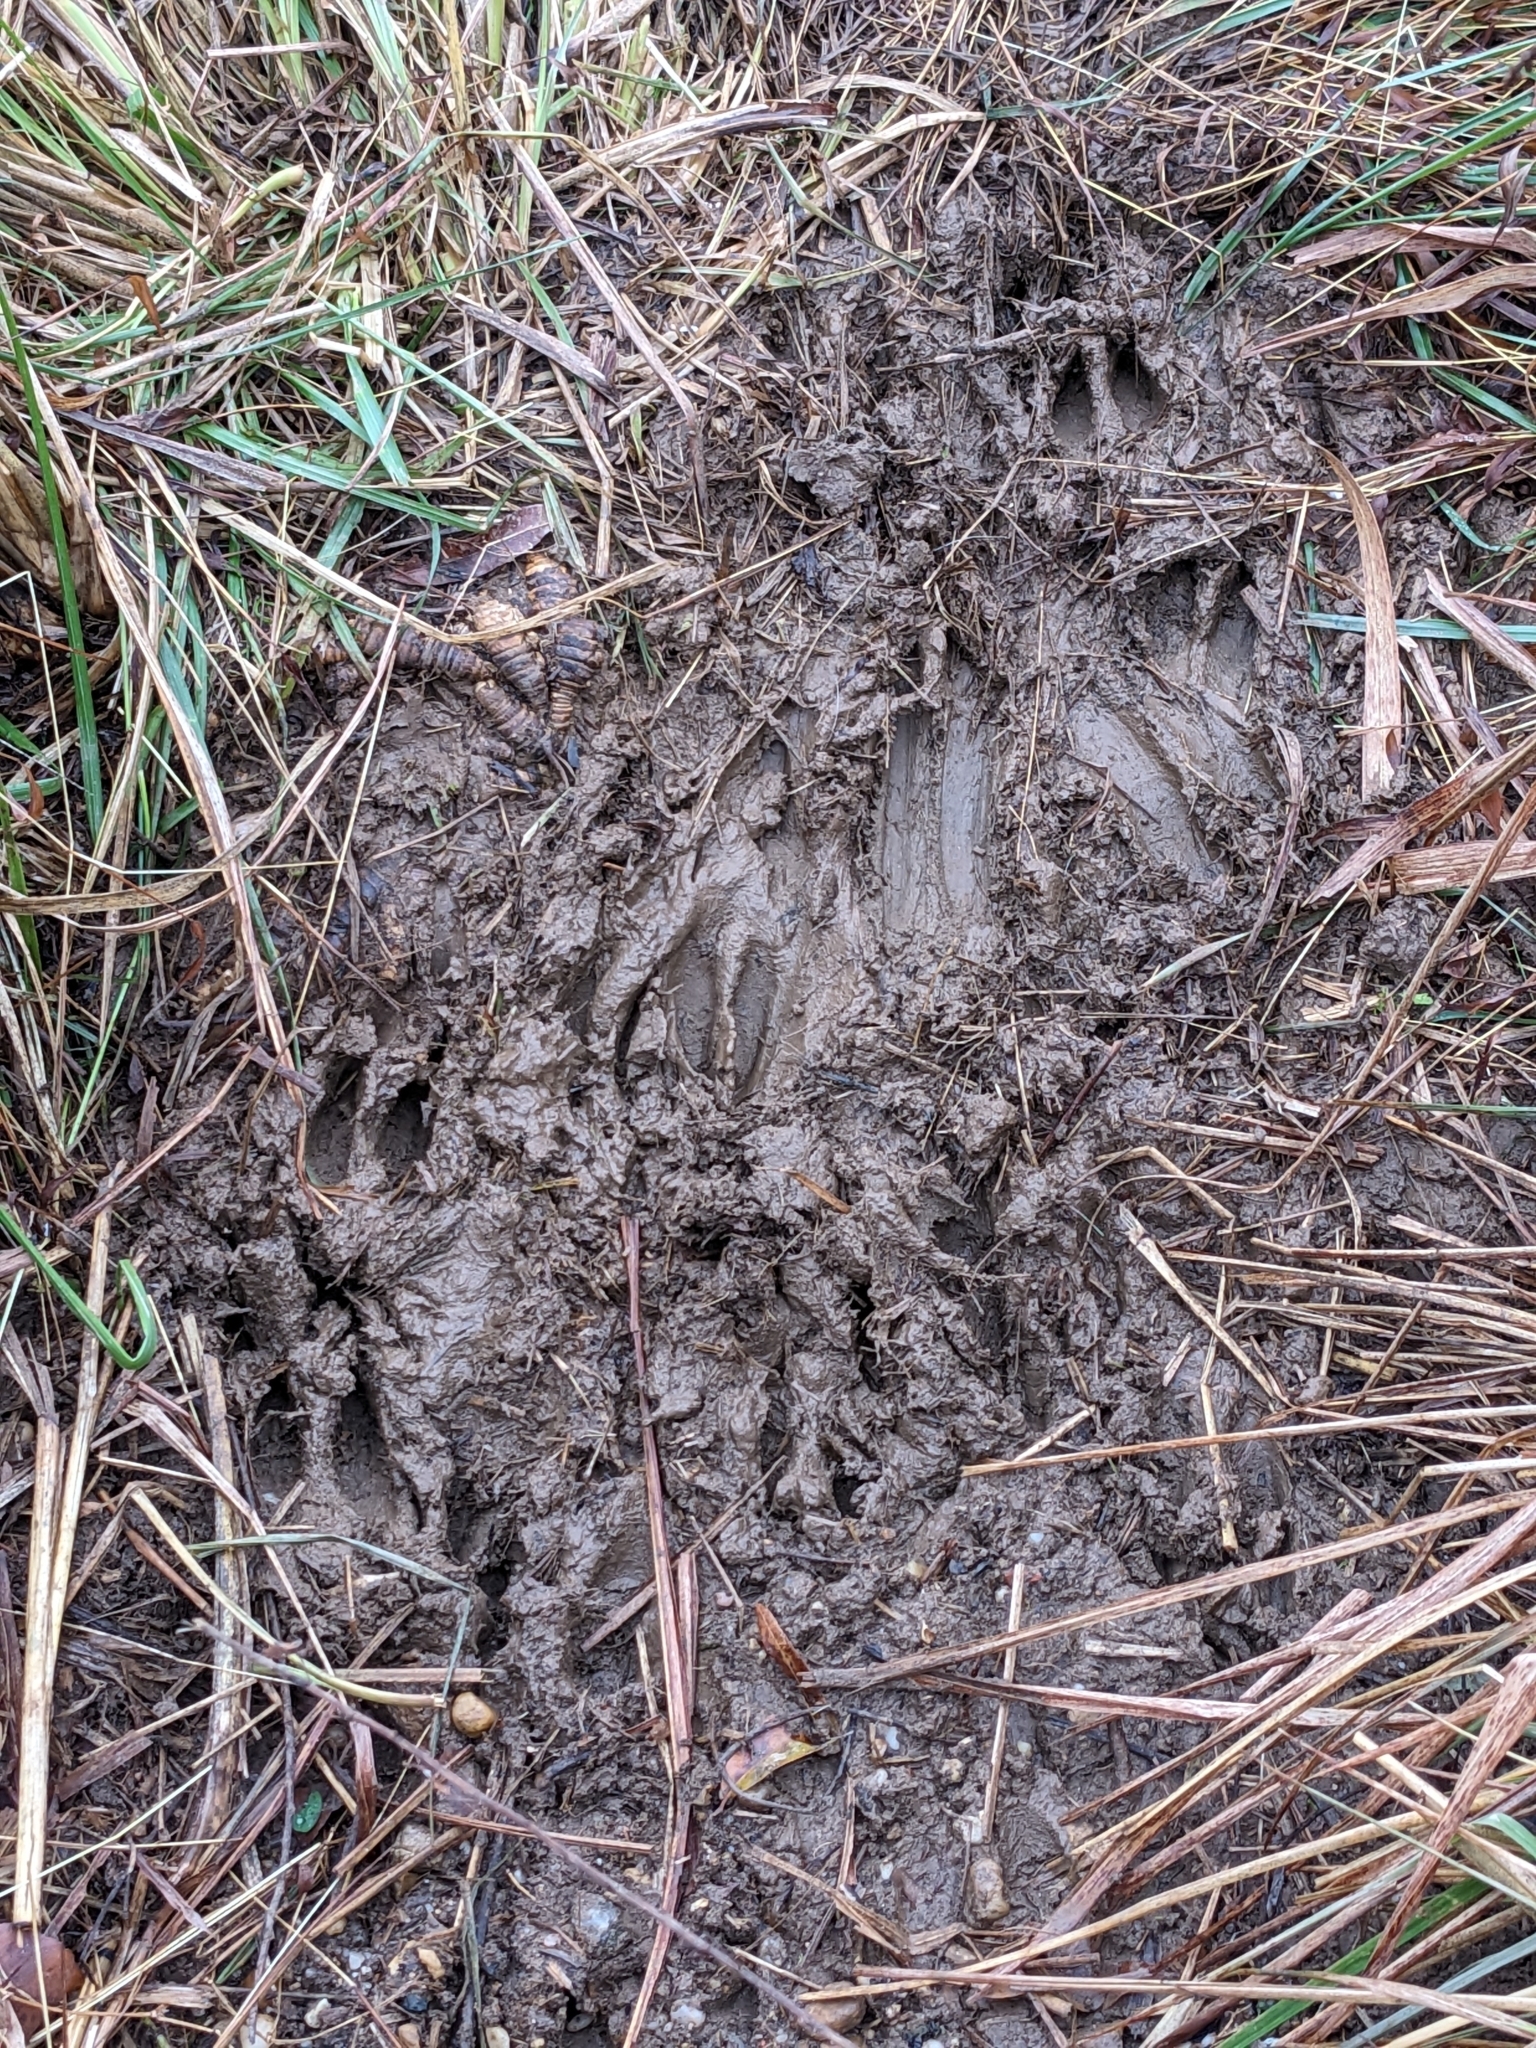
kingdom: Animalia
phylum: Chordata
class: Mammalia
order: Artiodactyla
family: Cervidae
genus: Odocoileus
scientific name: Odocoileus virginianus
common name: White-tailed deer
